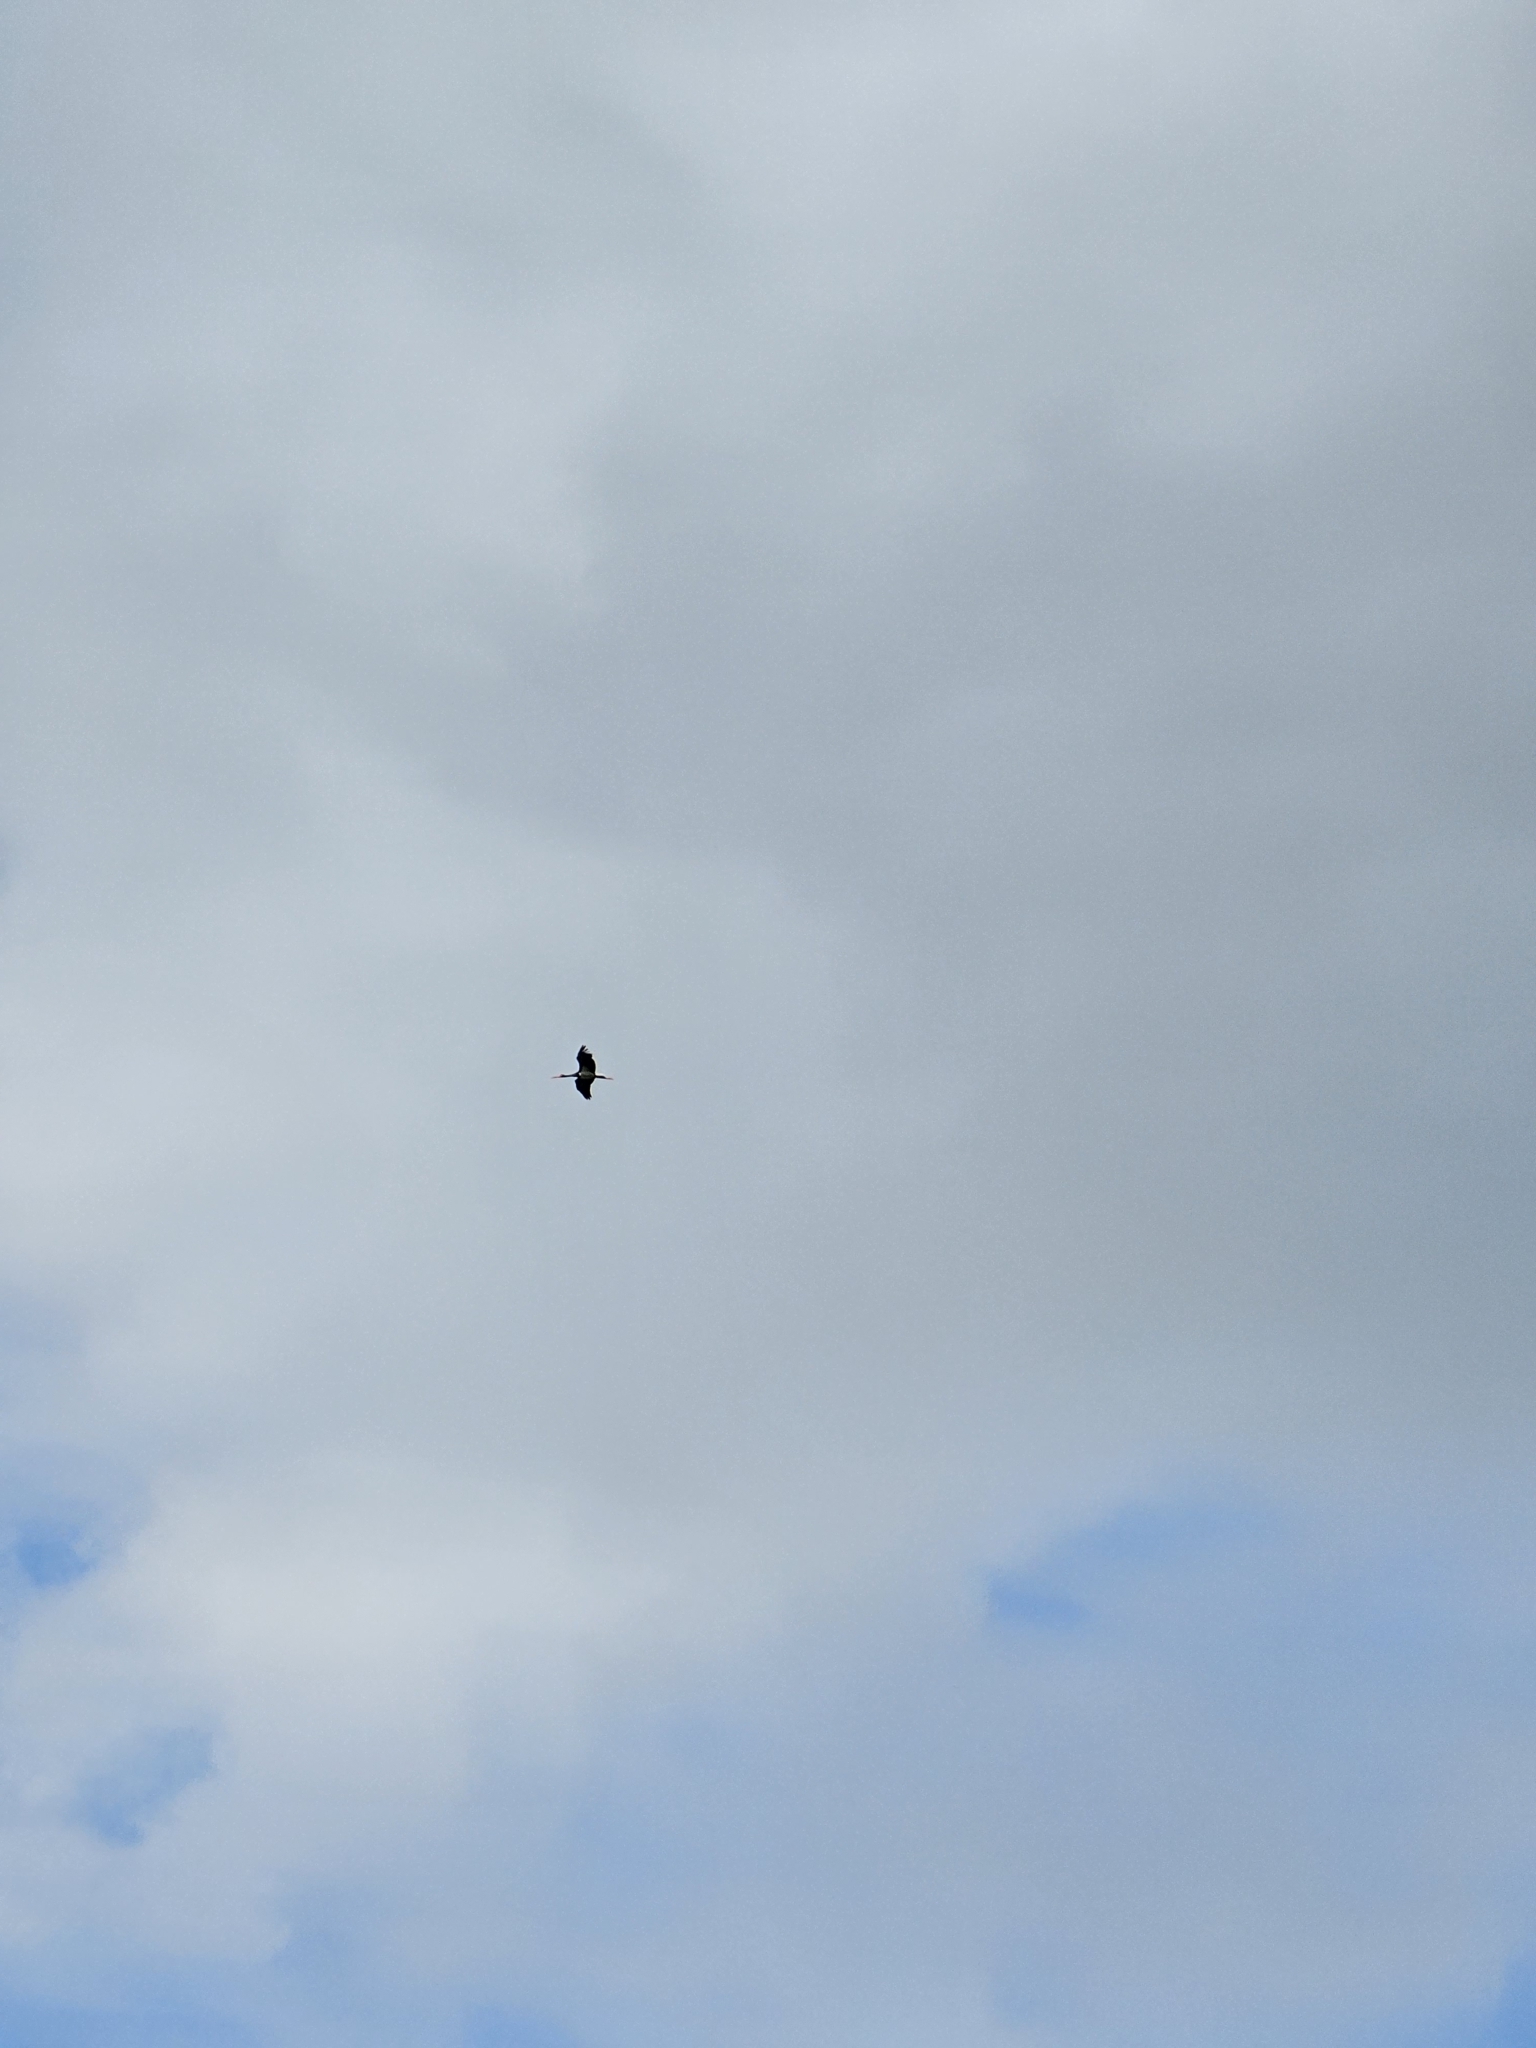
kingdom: Animalia
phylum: Chordata
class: Aves
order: Ciconiiformes
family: Ciconiidae
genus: Ciconia
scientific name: Ciconia nigra
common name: Black stork
